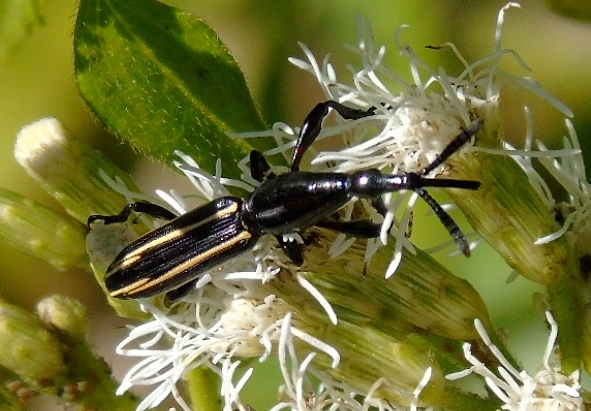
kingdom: Animalia
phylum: Arthropoda
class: Insecta
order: Coleoptera
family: Brentidae
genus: Brentus
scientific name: Brentus anchorago
